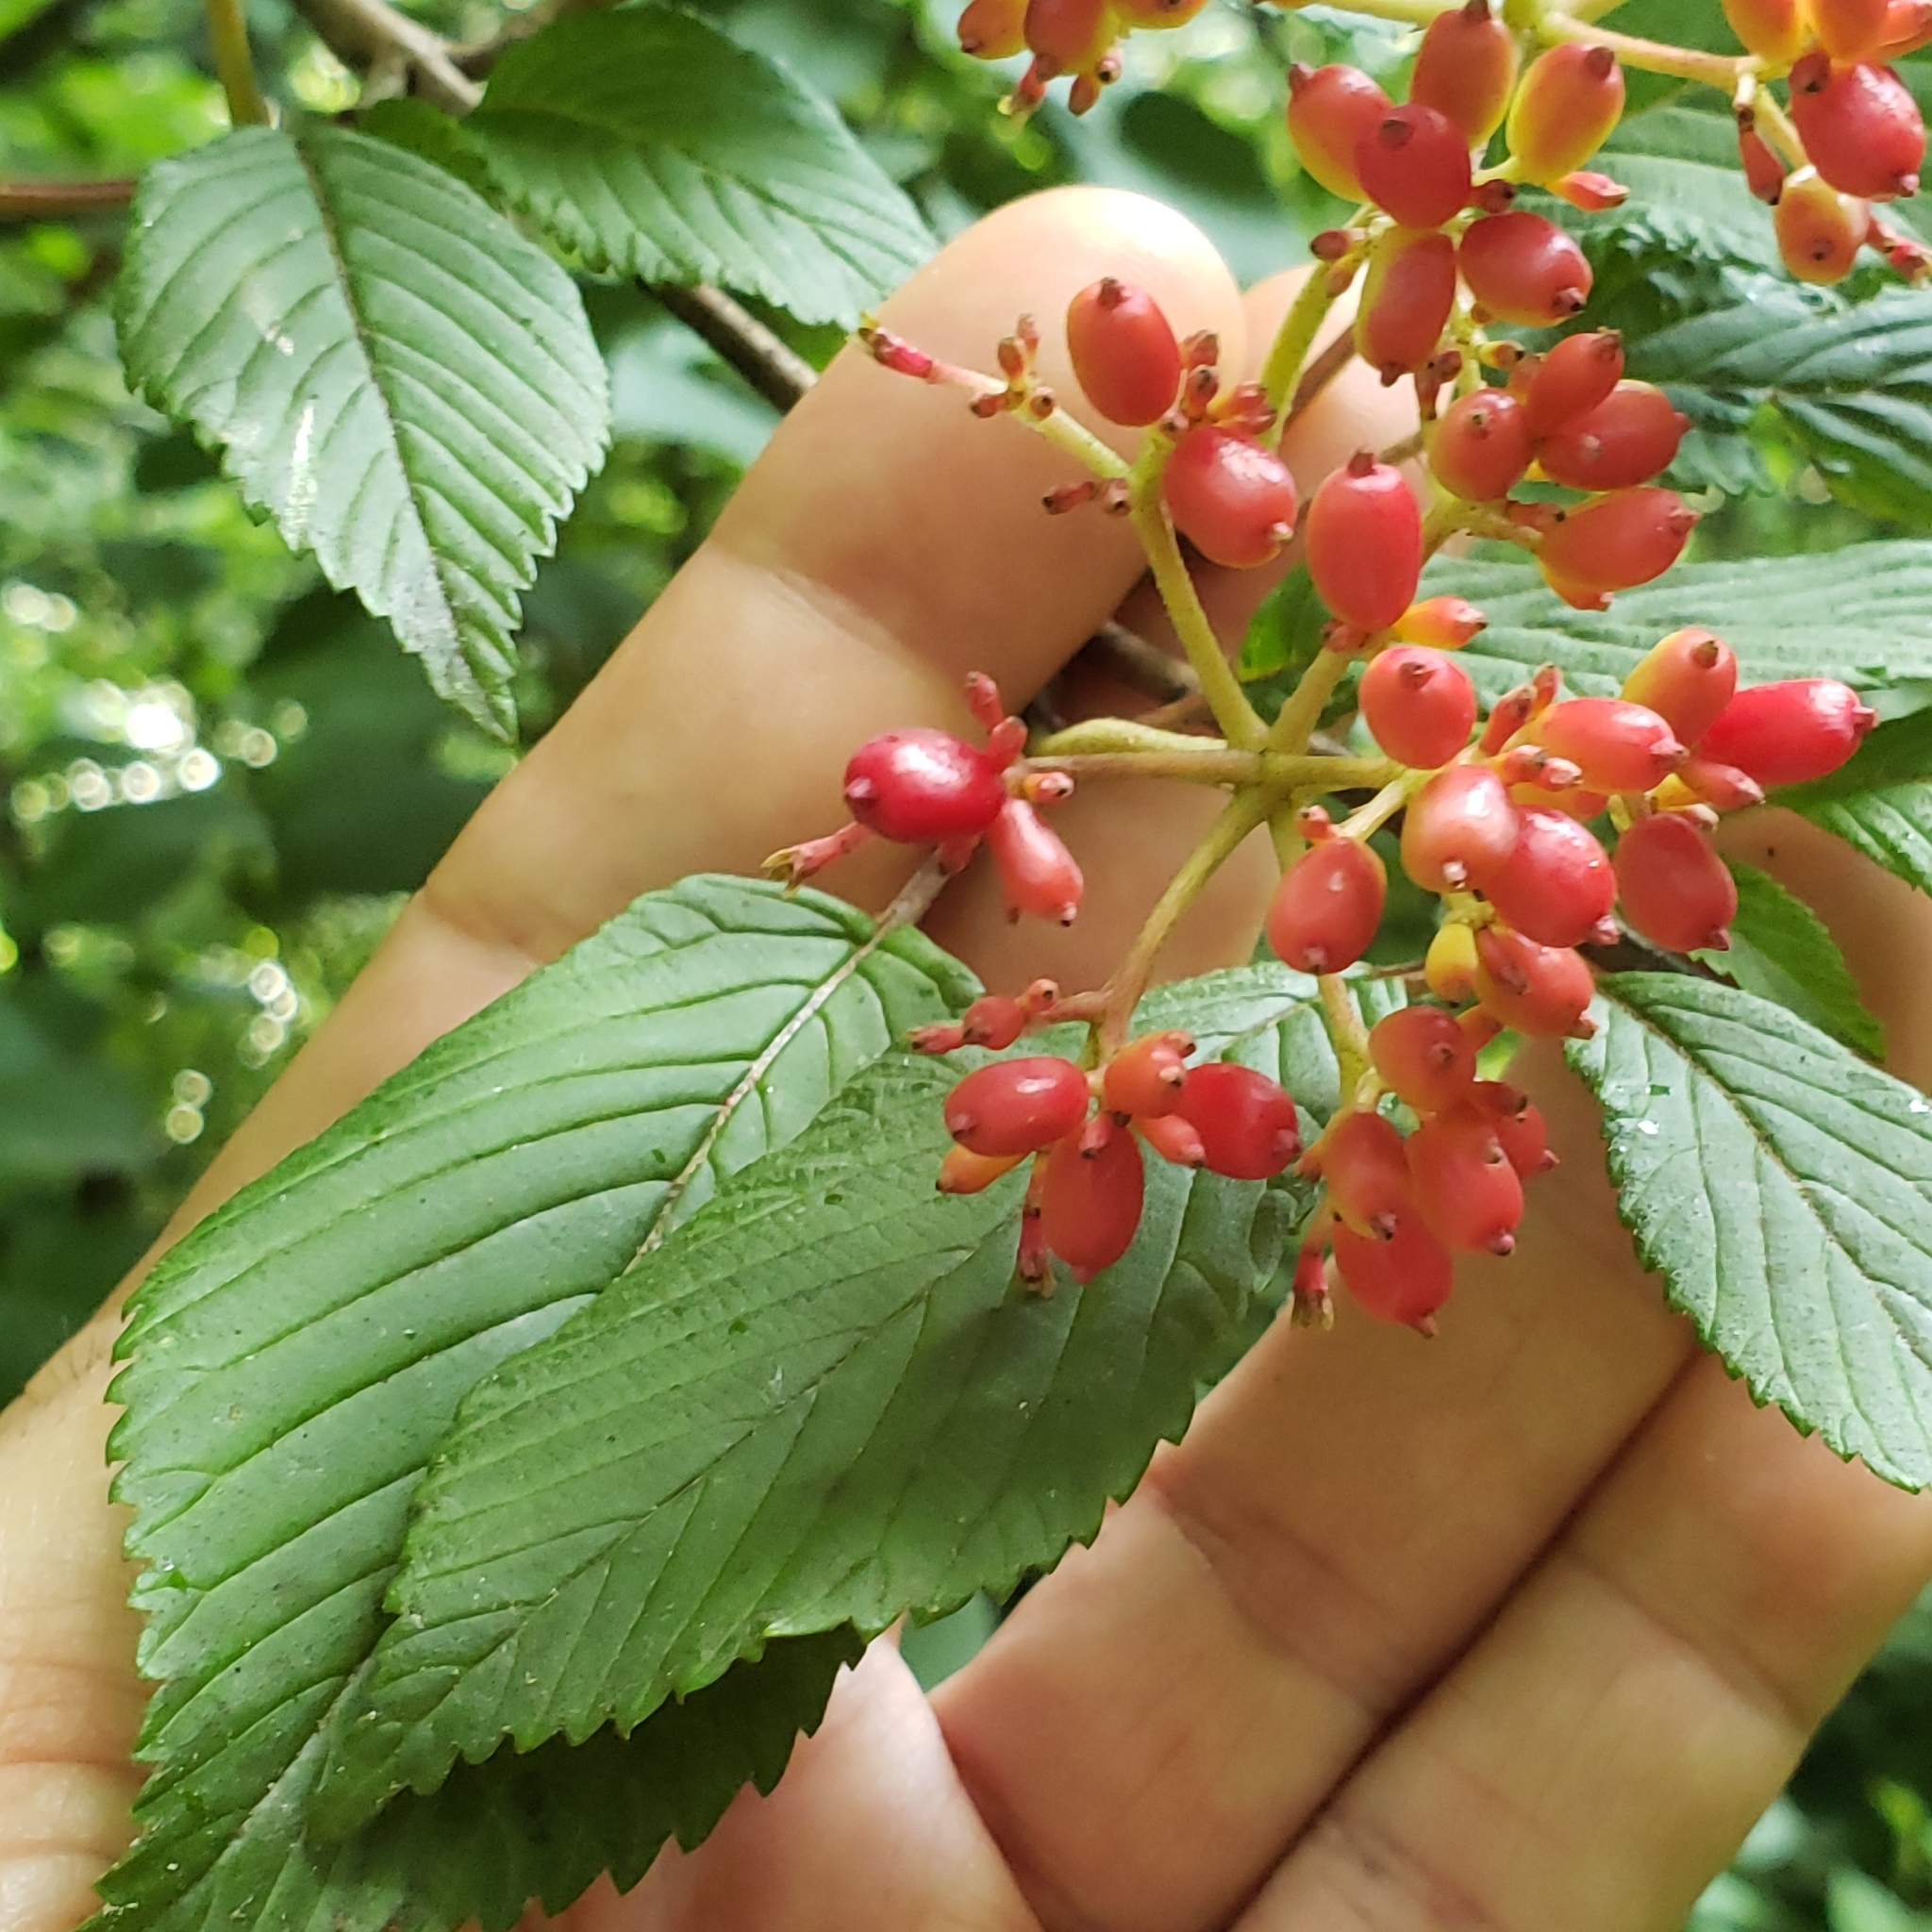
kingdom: Plantae
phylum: Tracheophyta
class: Magnoliopsida
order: Dipsacales
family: Viburnaceae
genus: Viburnum
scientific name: Viburnum plicatum
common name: Japanese snowball
